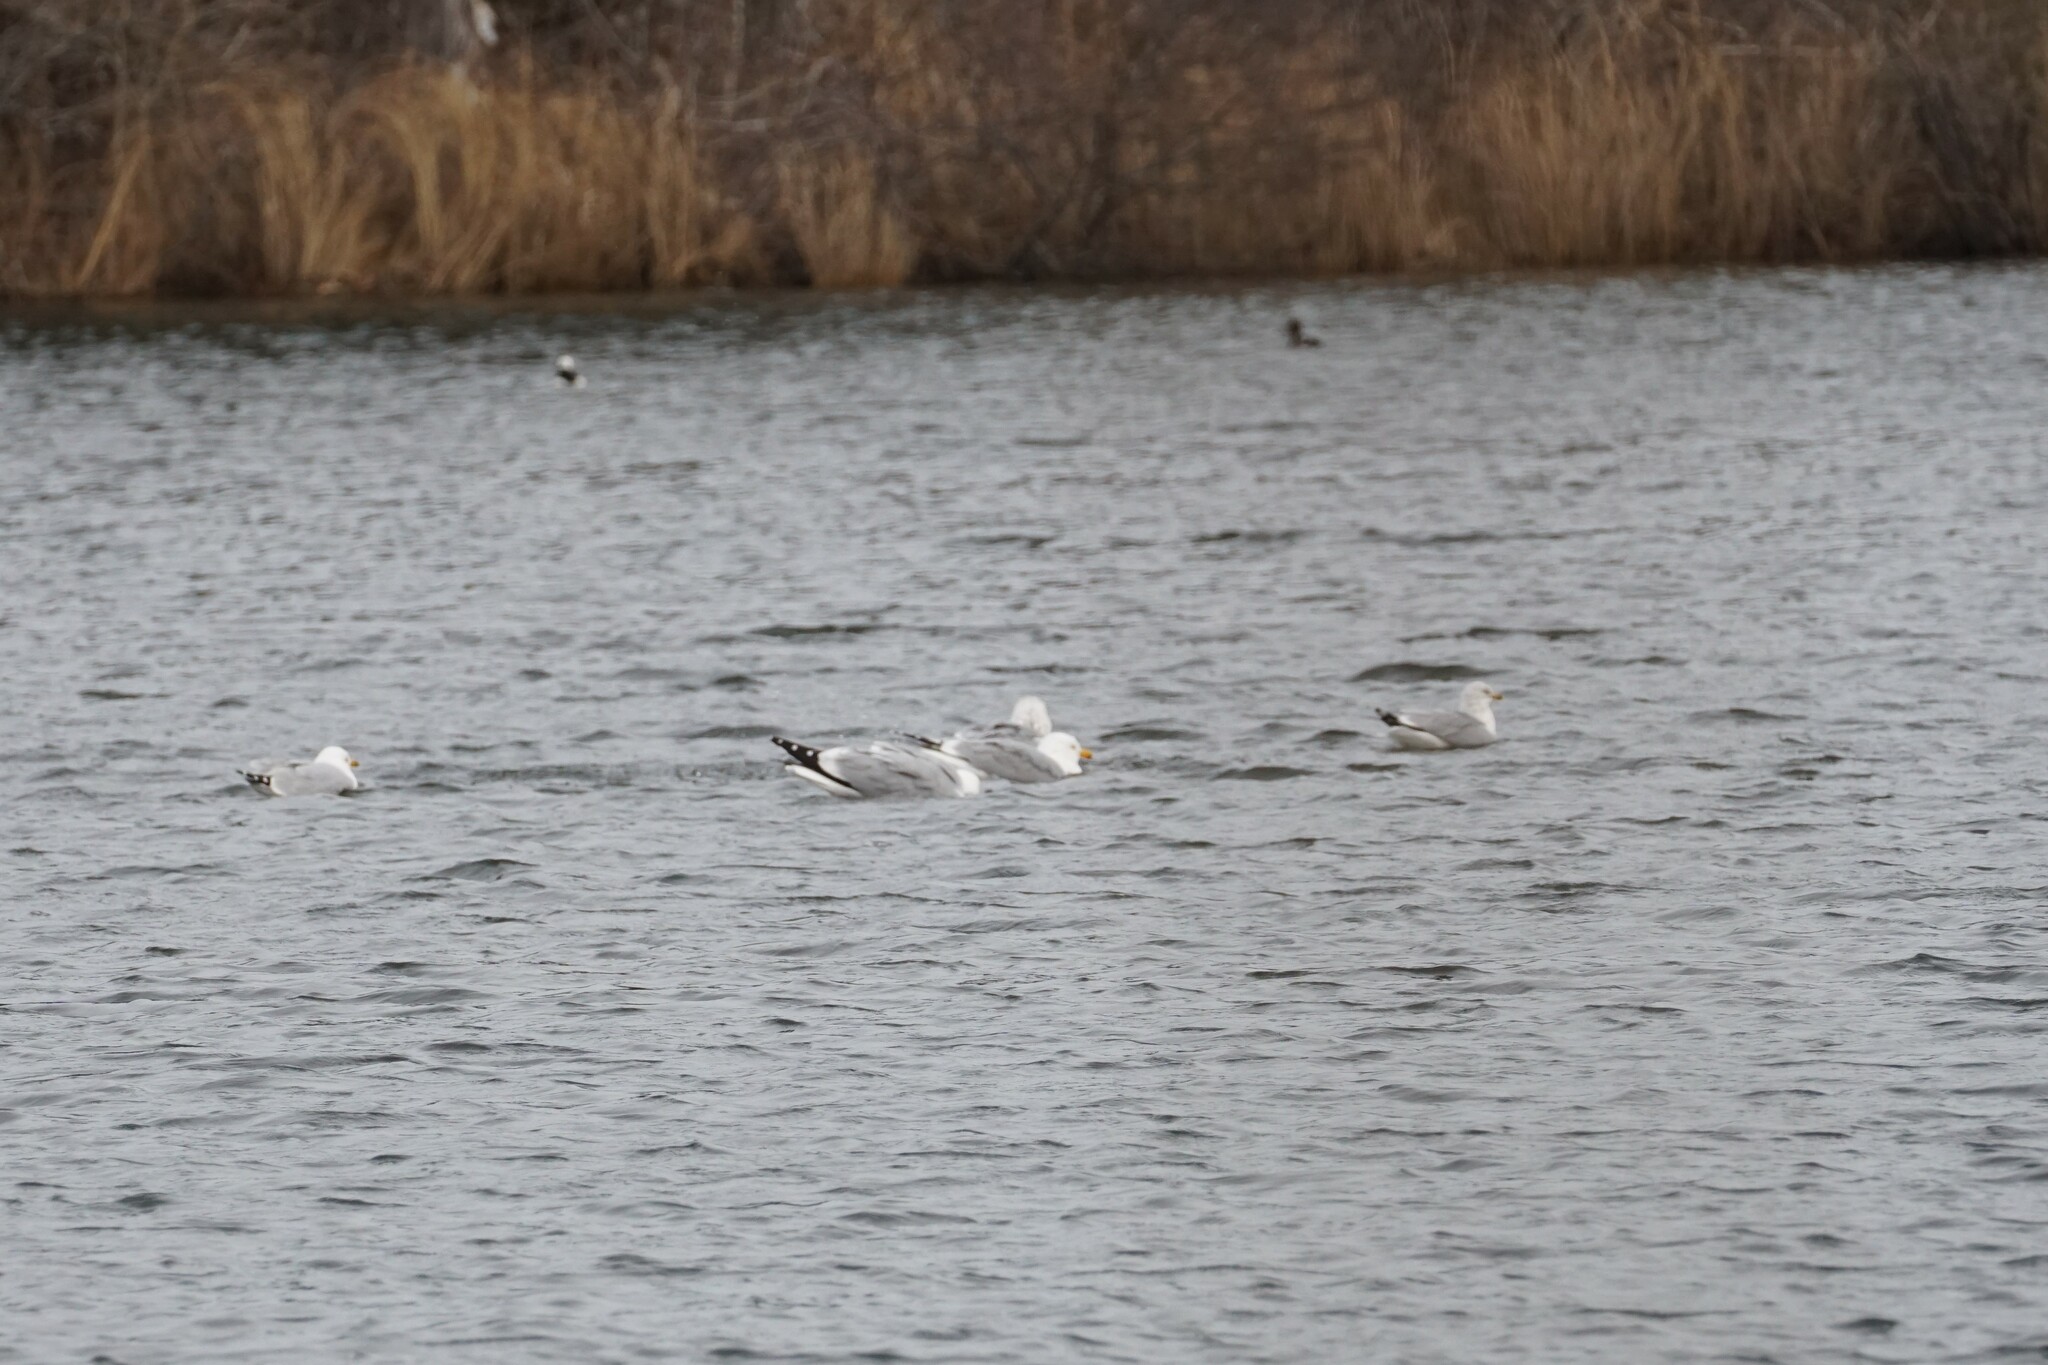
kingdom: Animalia
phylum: Chordata
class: Aves
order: Charadriiformes
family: Laridae
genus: Larus
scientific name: Larus argentatus
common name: Herring gull
